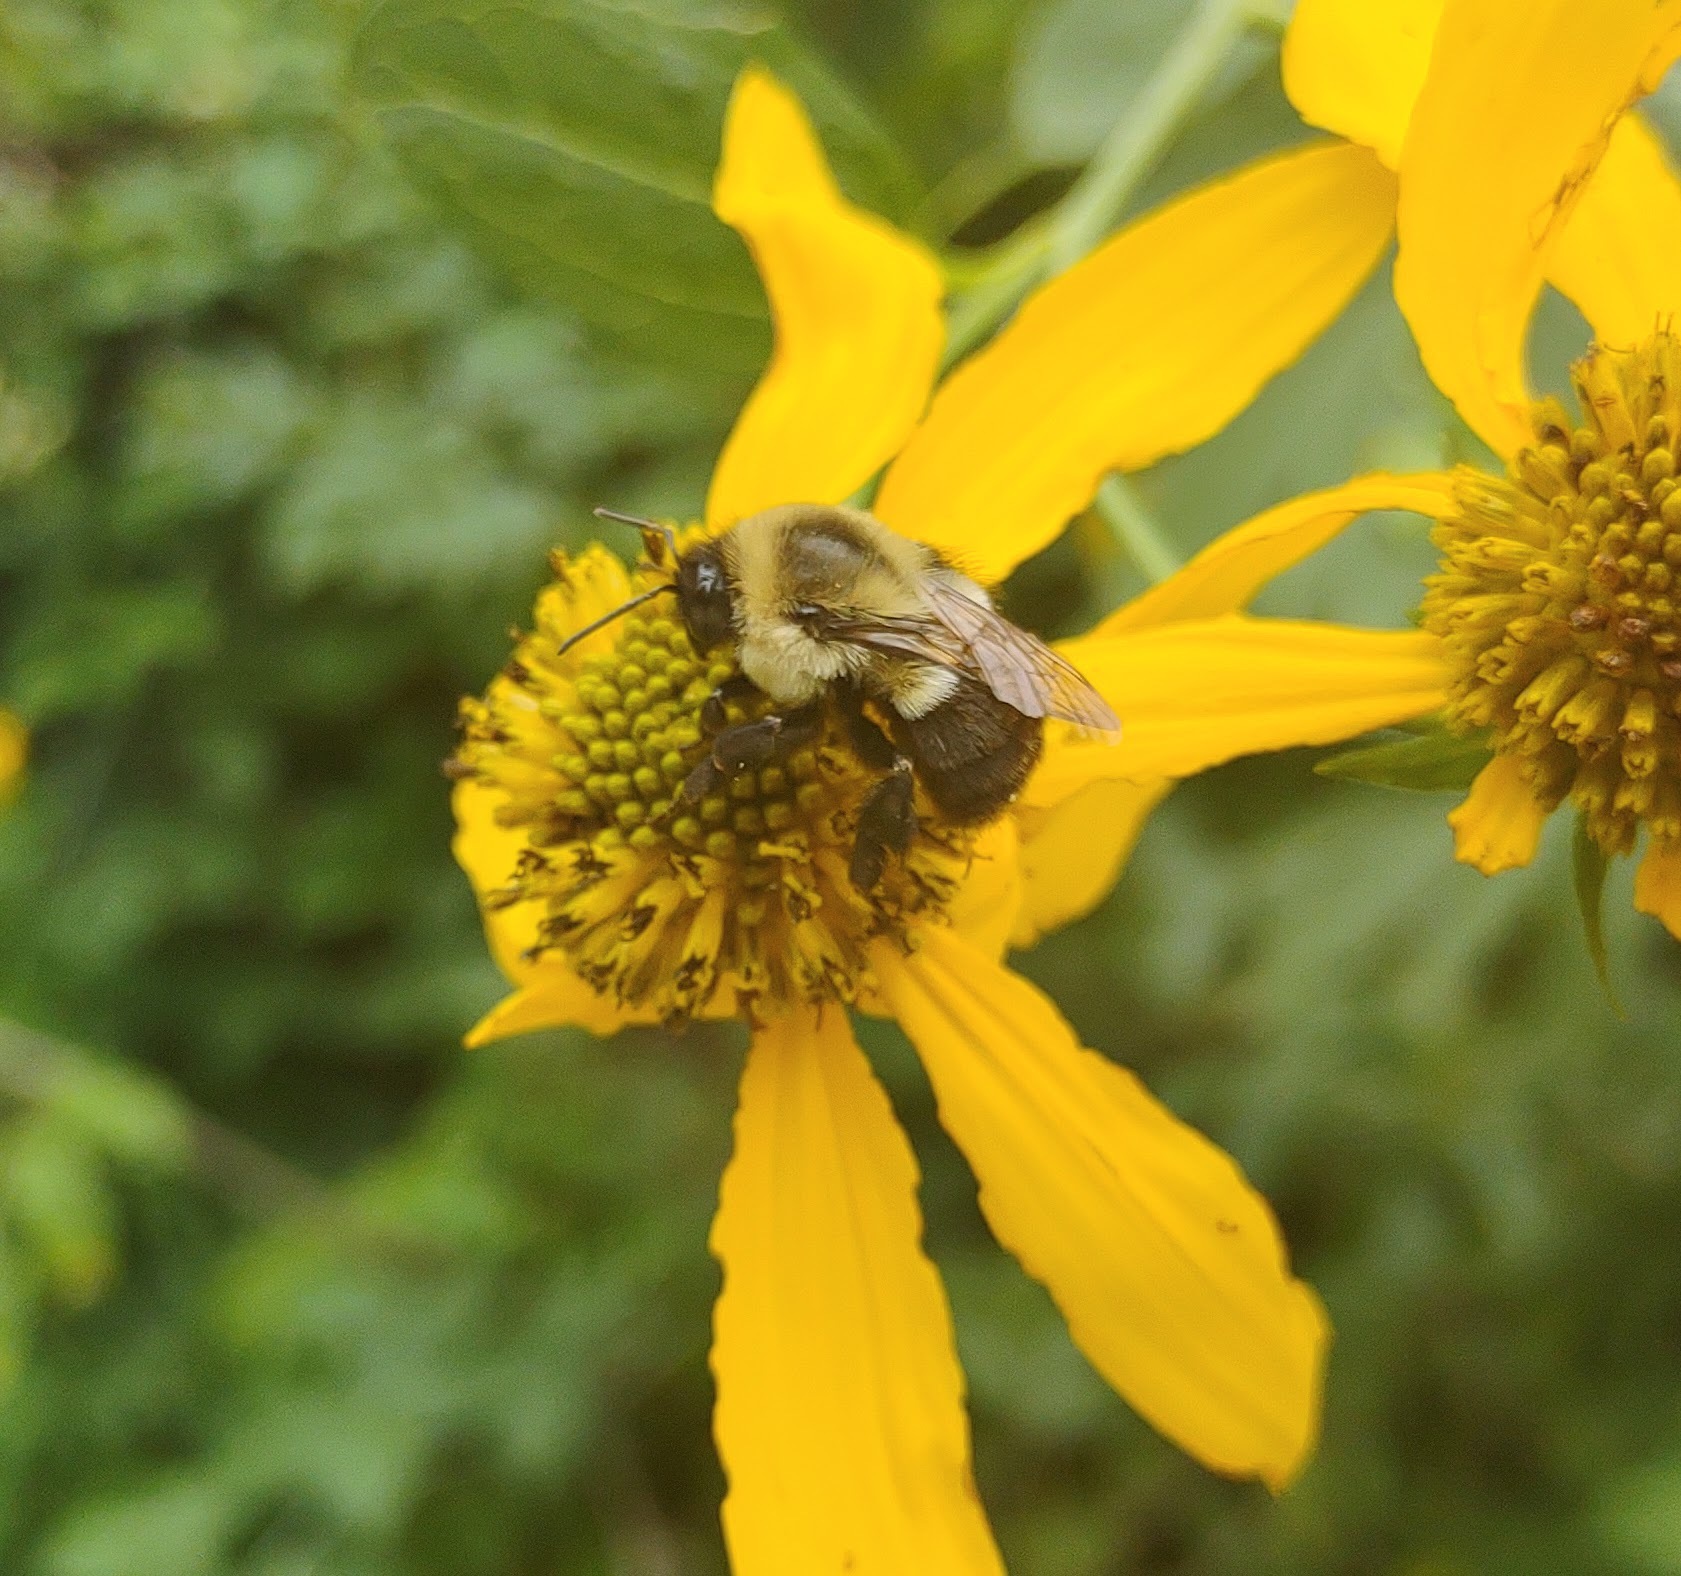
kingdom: Animalia
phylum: Arthropoda
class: Insecta
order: Hymenoptera
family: Apidae
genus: Bombus
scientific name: Bombus impatiens
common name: Common eastern bumble bee
